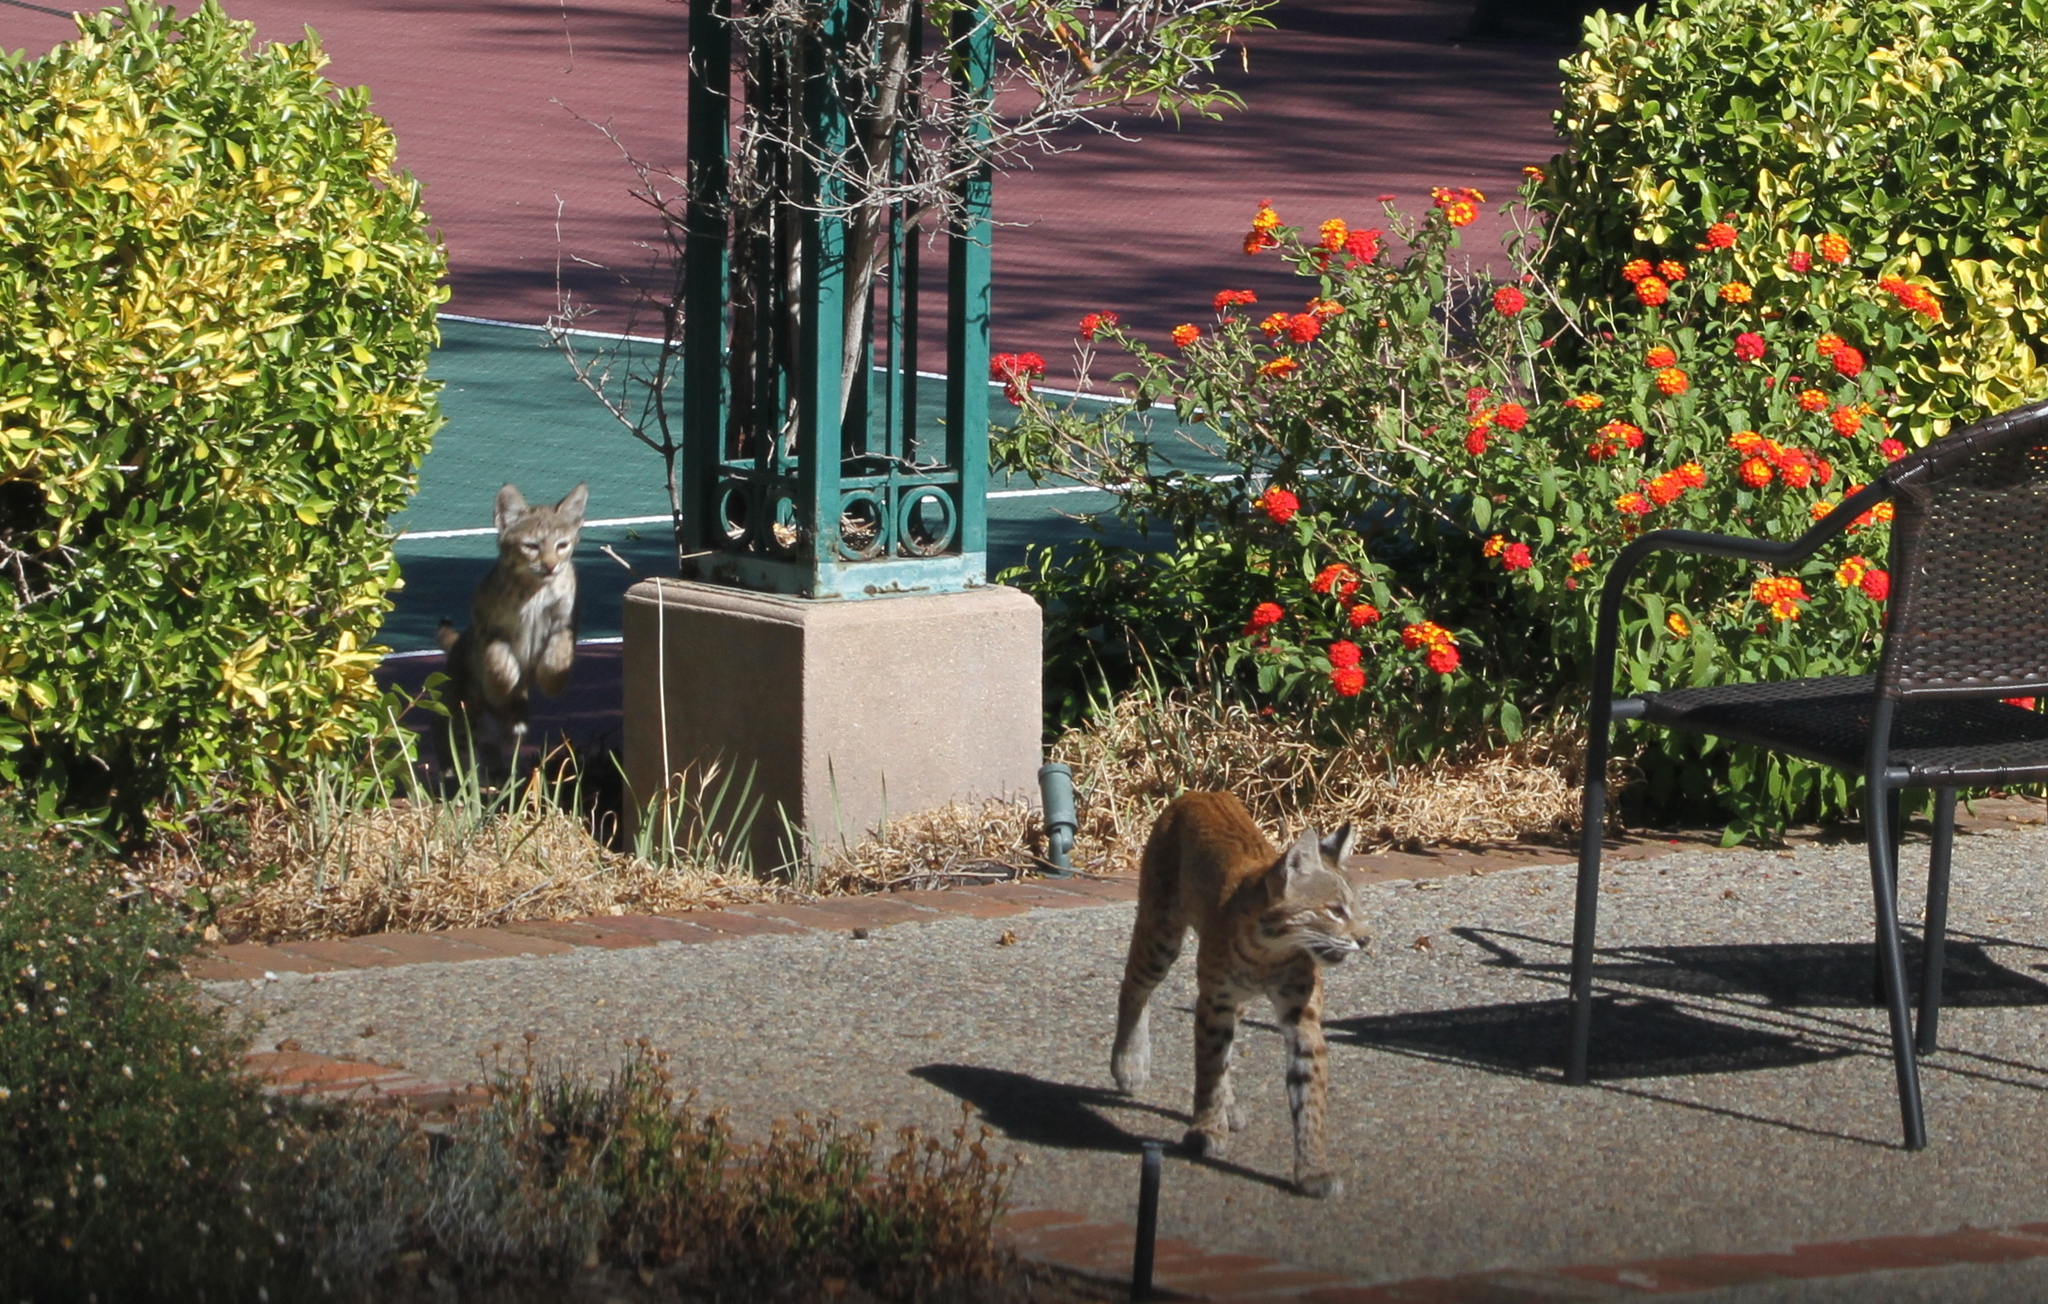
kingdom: Animalia
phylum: Chordata
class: Mammalia
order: Carnivora
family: Felidae
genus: Lynx
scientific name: Lynx rufus
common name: Bobcat
